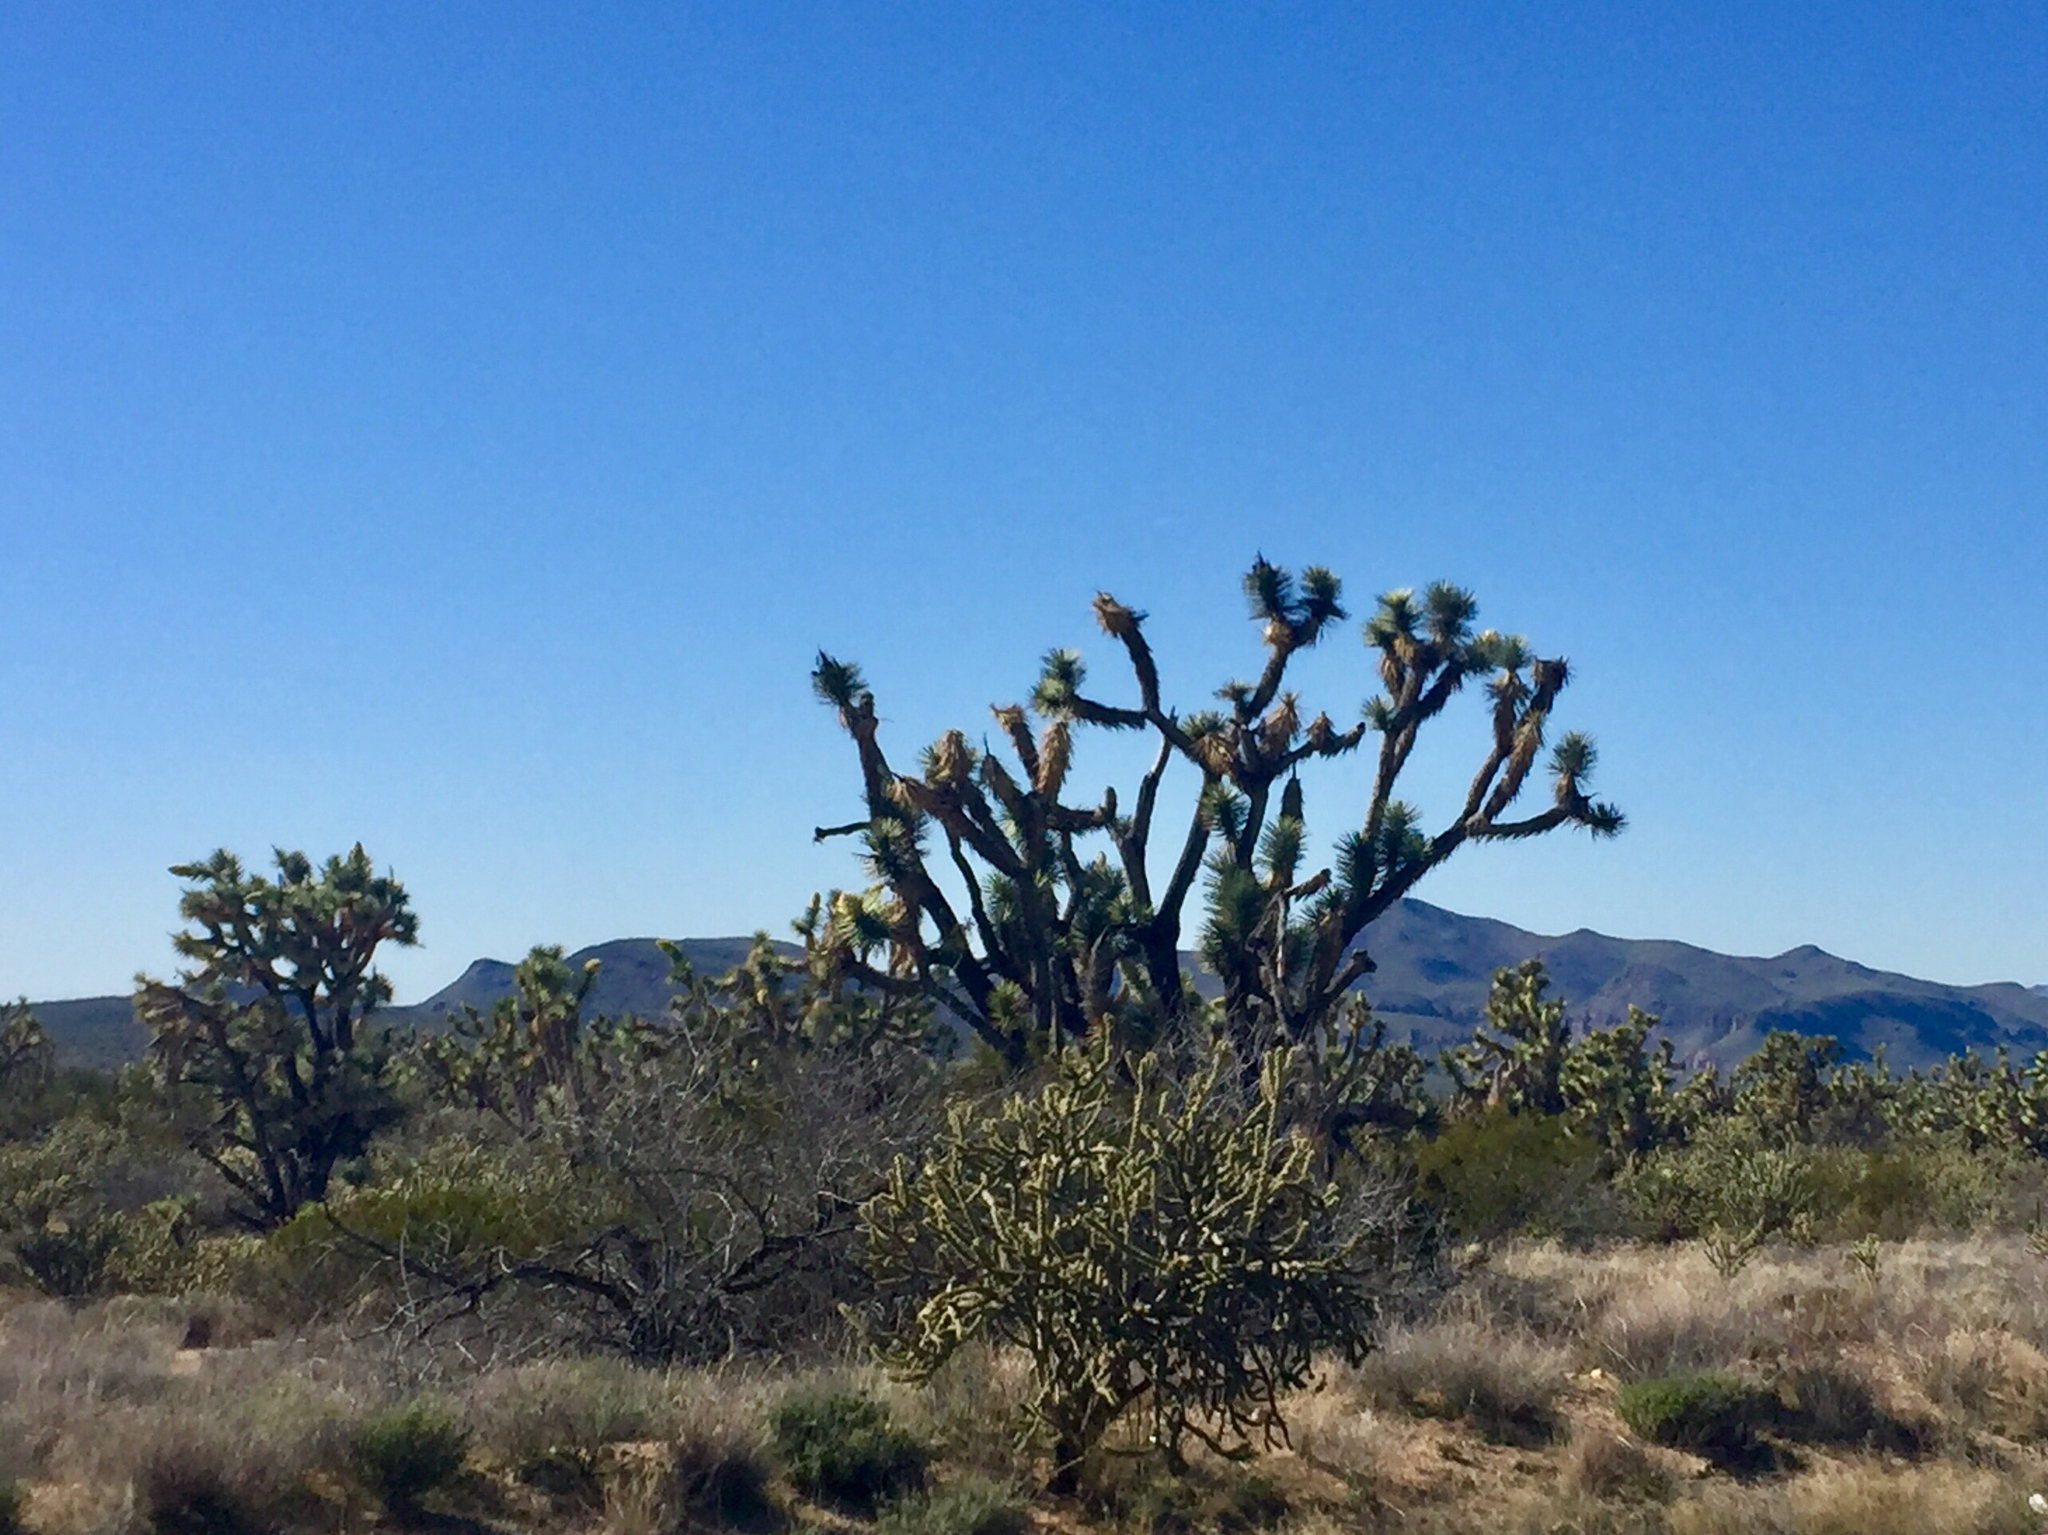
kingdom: Plantae
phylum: Tracheophyta
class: Liliopsida
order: Asparagales
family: Asparagaceae
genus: Yucca
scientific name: Yucca brevifolia
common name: Joshua tree
